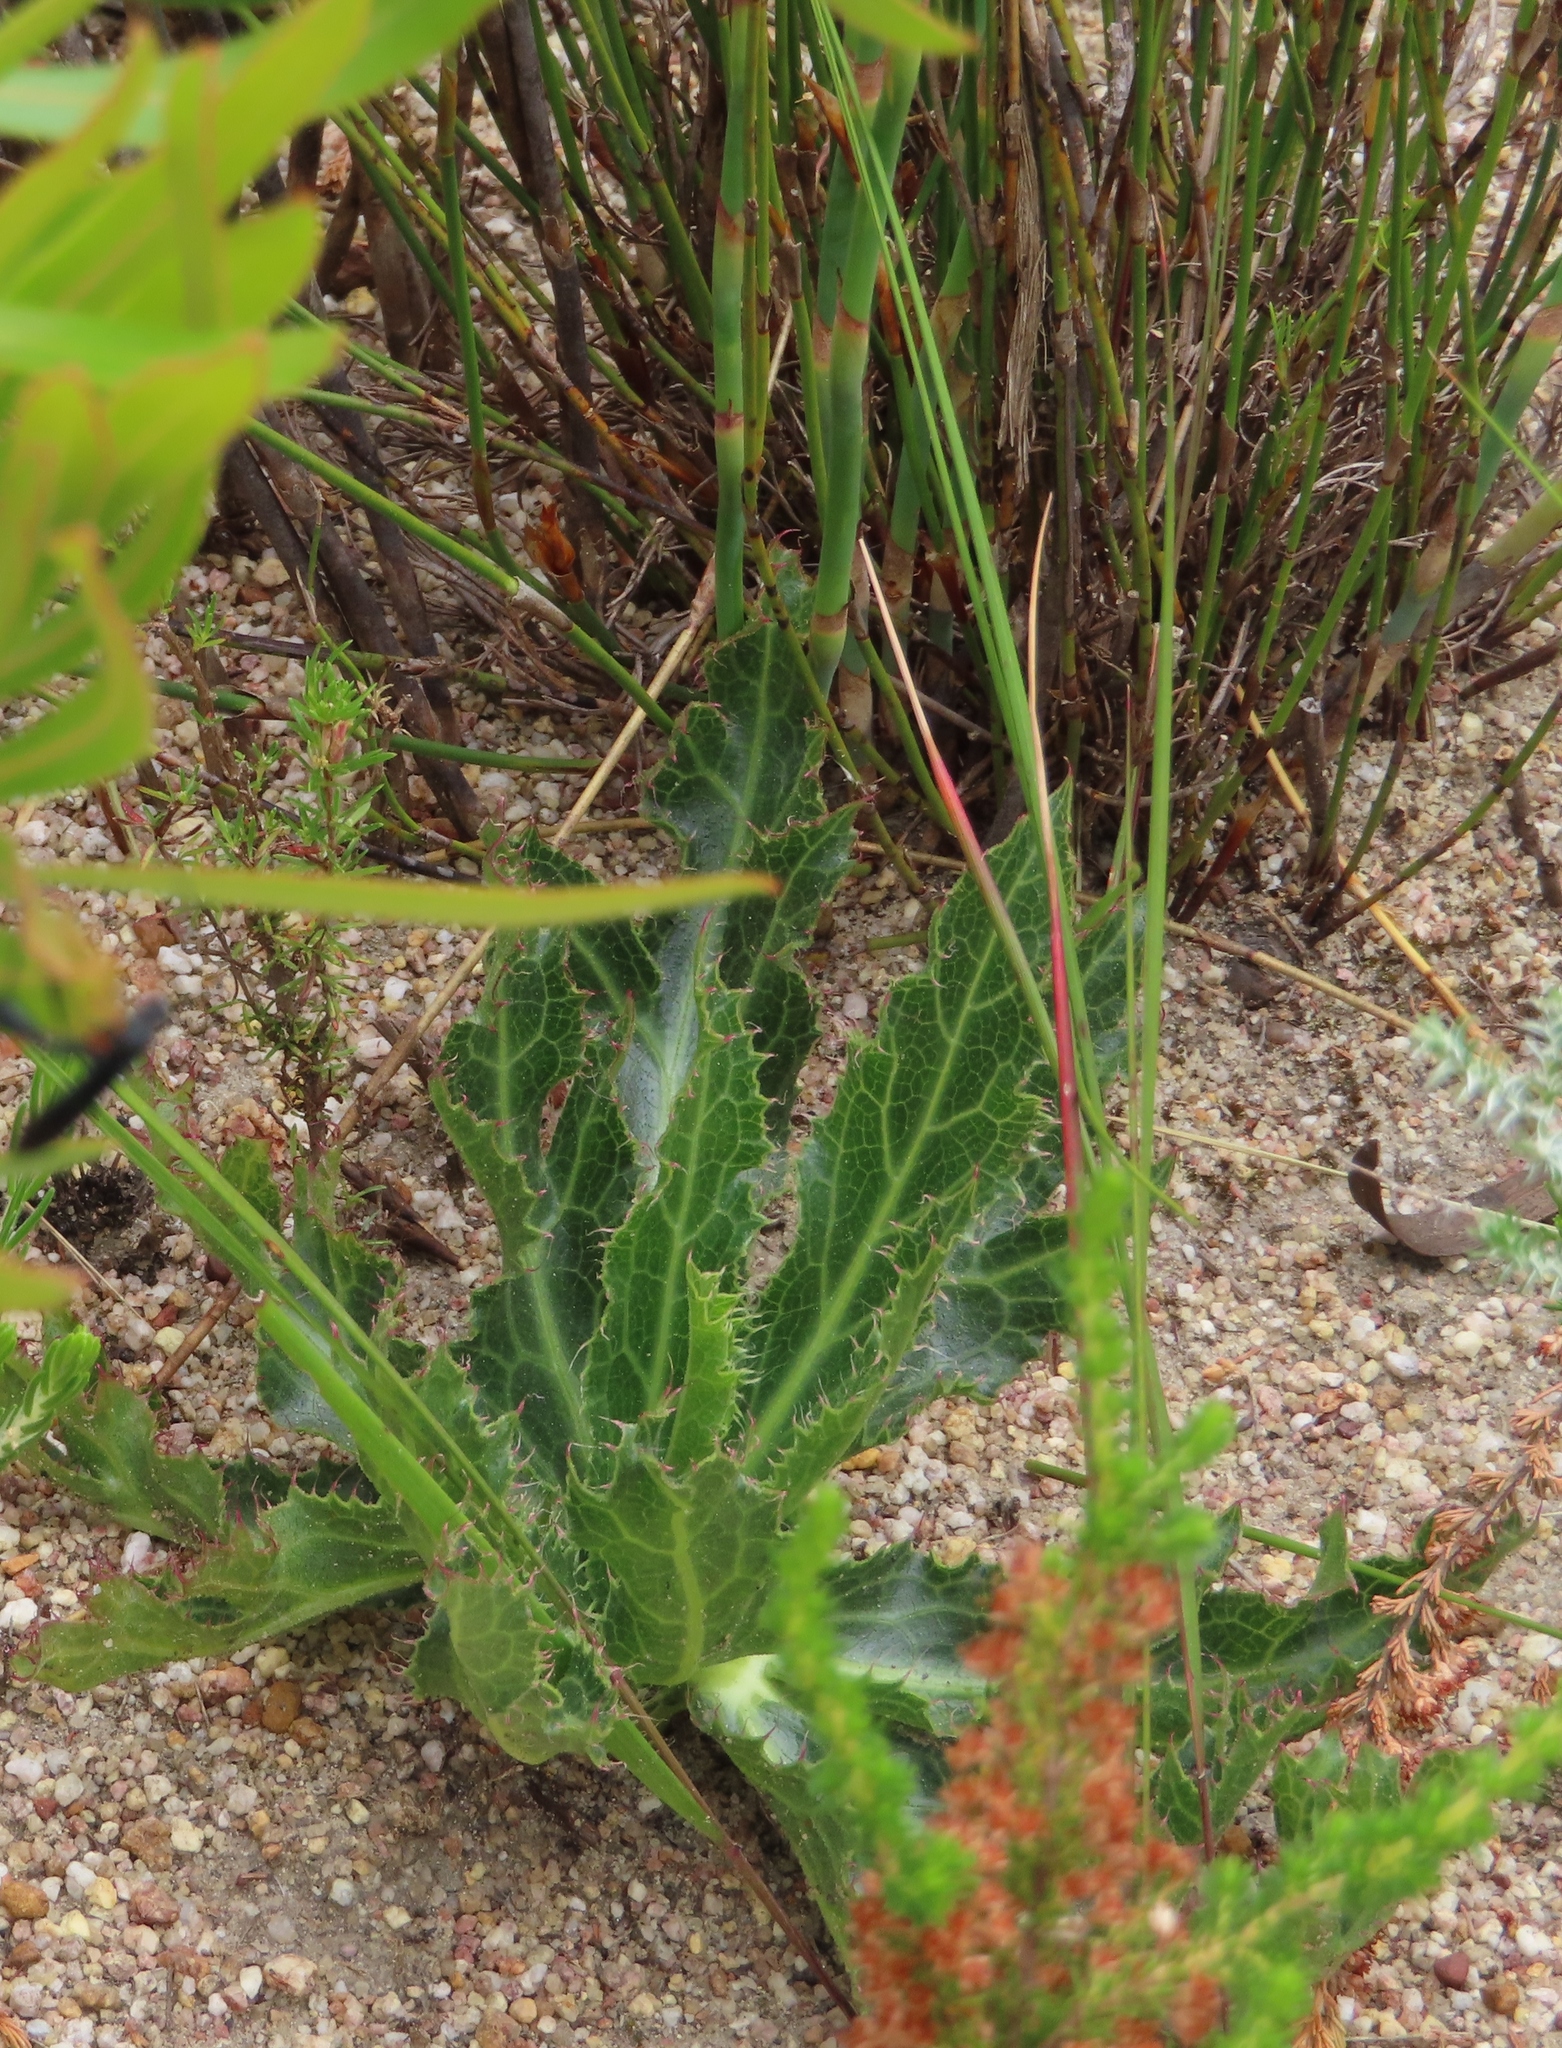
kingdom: Plantae
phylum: Tracheophyta
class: Magnoliopsida
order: Apiales
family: Apiaceae
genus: Lichtensteinia
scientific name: Lichtensteinia lacera
